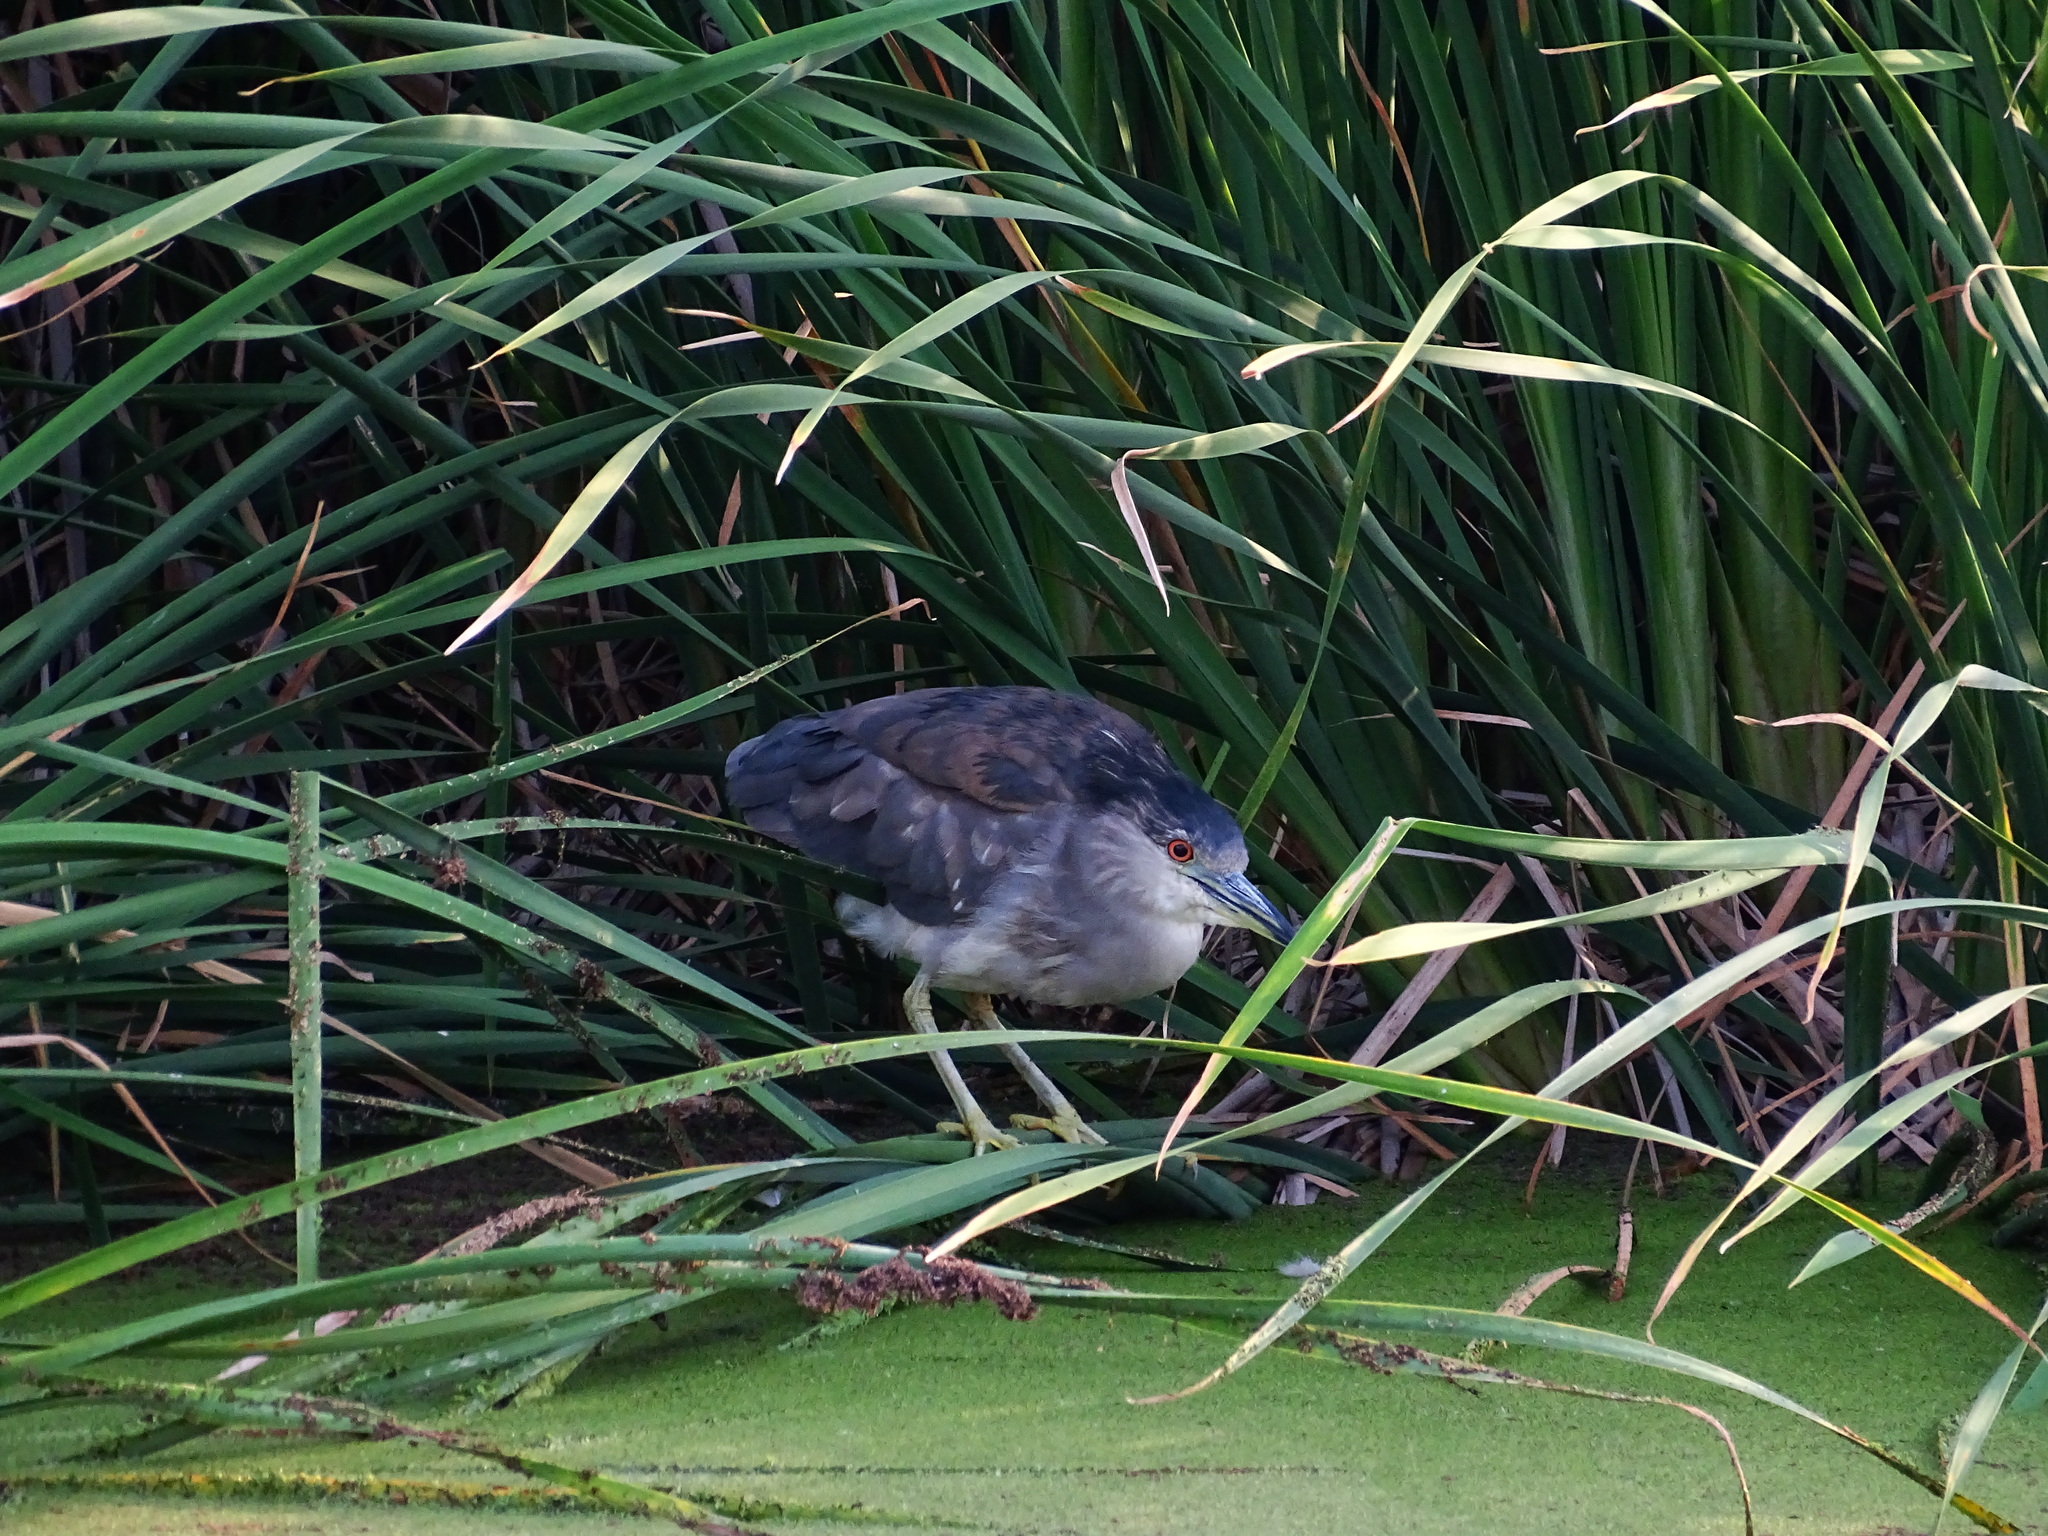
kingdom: Animalia
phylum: Chordata
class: Aves
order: Pelecaniformes
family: Ardeidae
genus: Nycticorax
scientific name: Nycticorax nycticorax
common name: Black-crowned night heron
